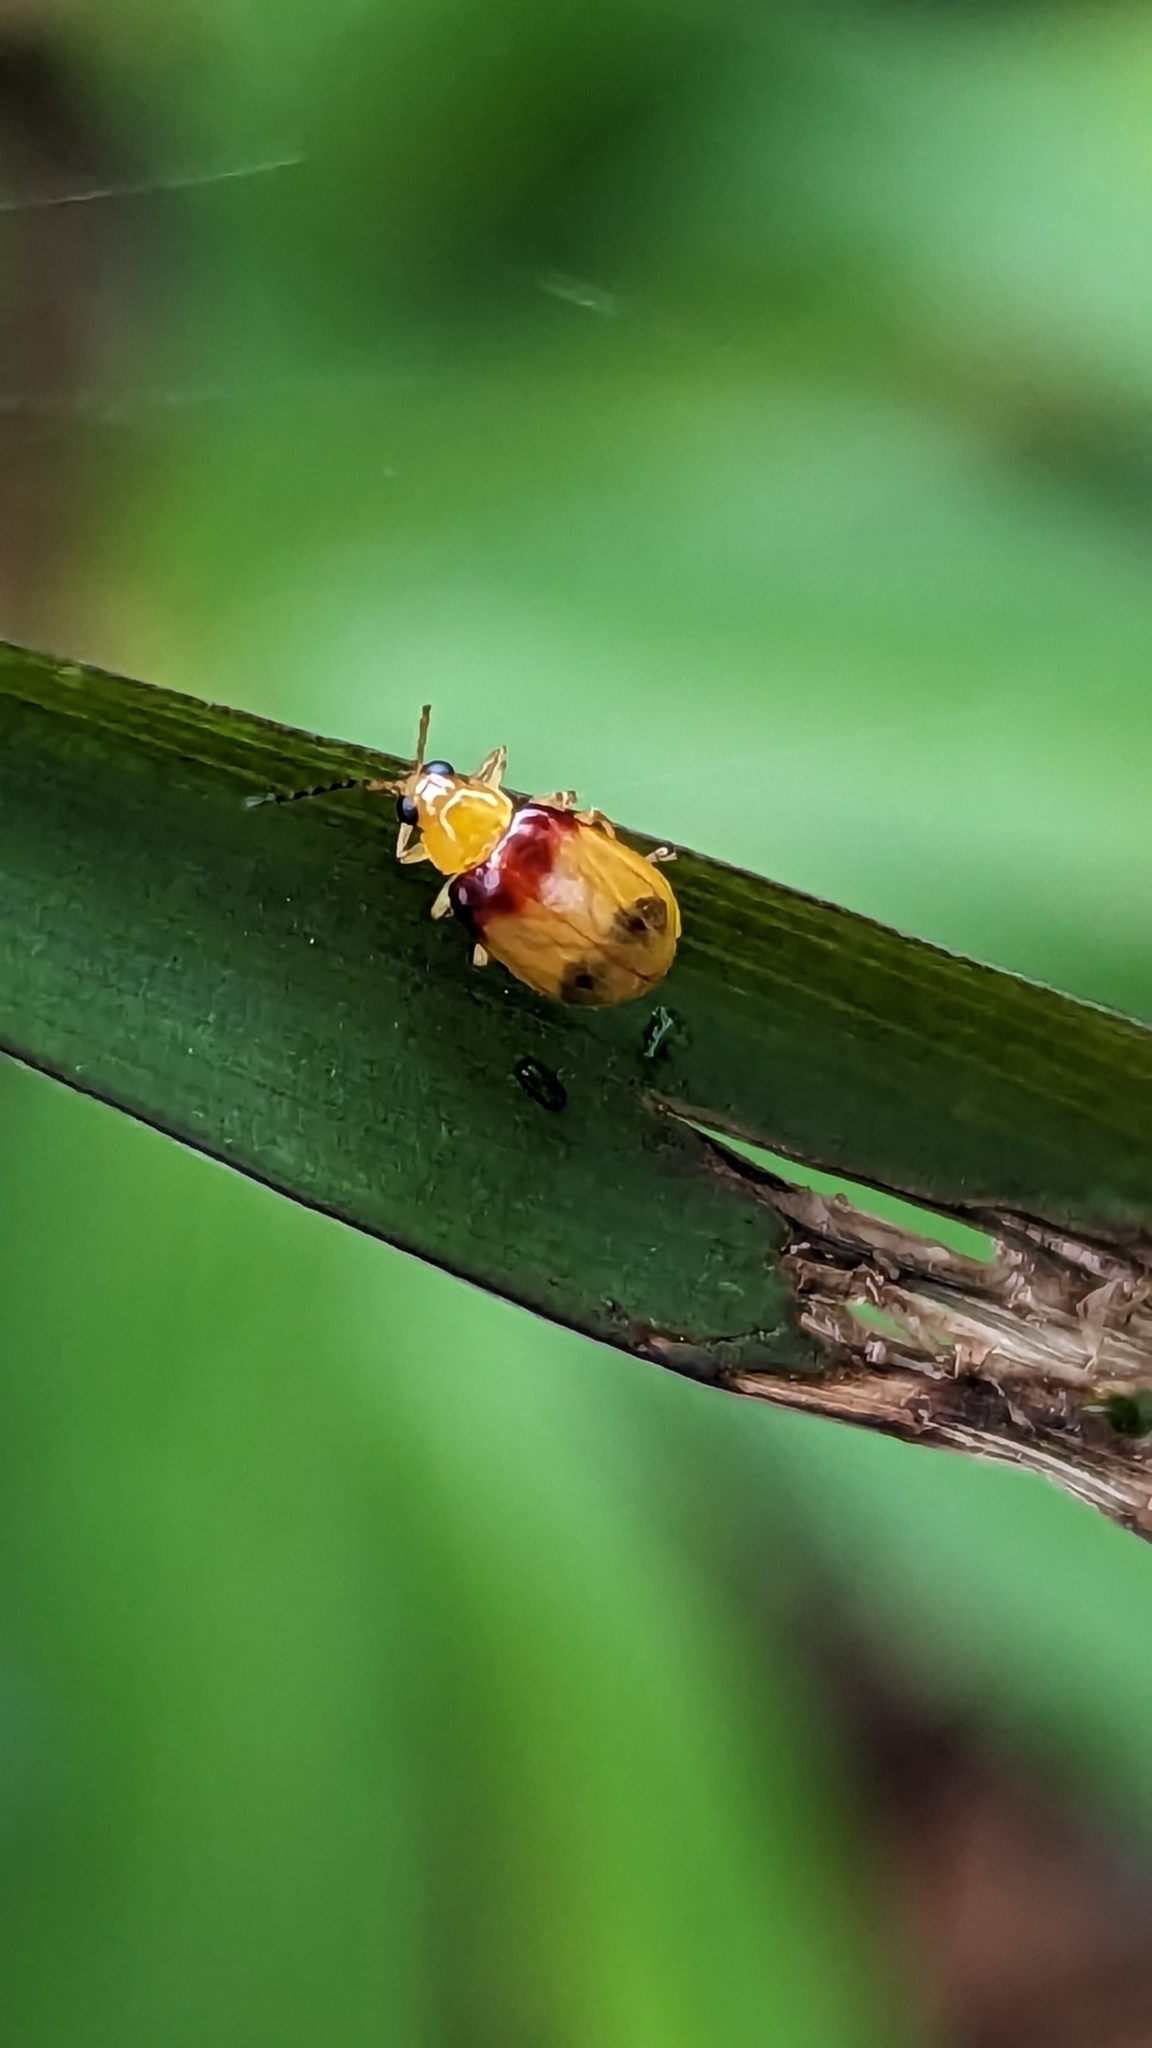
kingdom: Animalia
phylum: Arthropoda
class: Insecta
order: Coleoptera
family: Chrysomelidae
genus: Monolepta
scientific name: Monolepta
